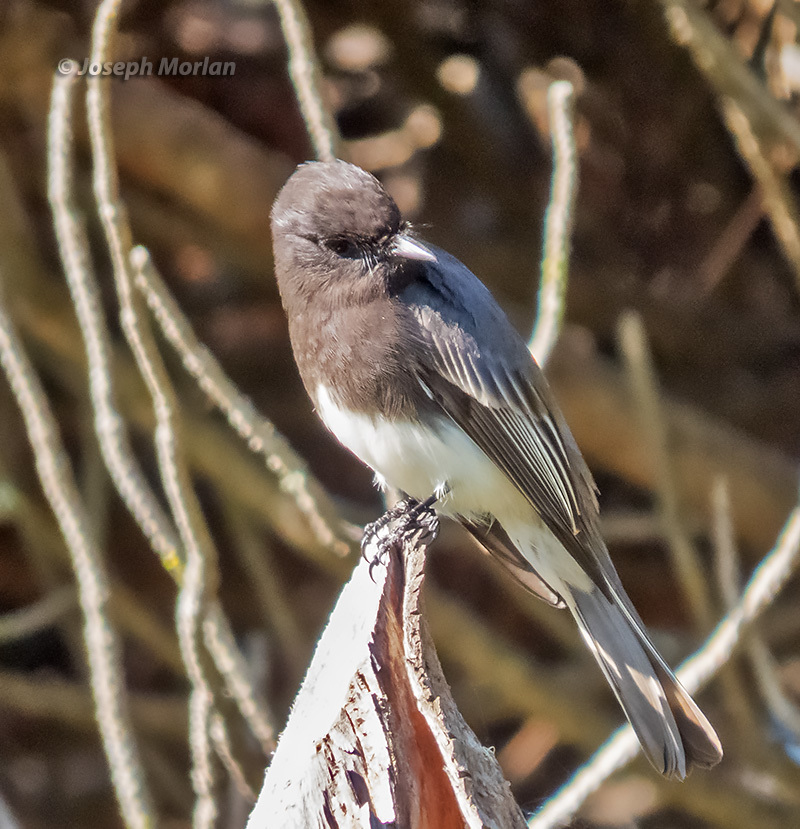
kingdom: Animalia
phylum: Chordata
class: Aves
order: Passeriformes
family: Tyrannidae
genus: Sayornis
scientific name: Sayornis nigricans
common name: Black phoebe
